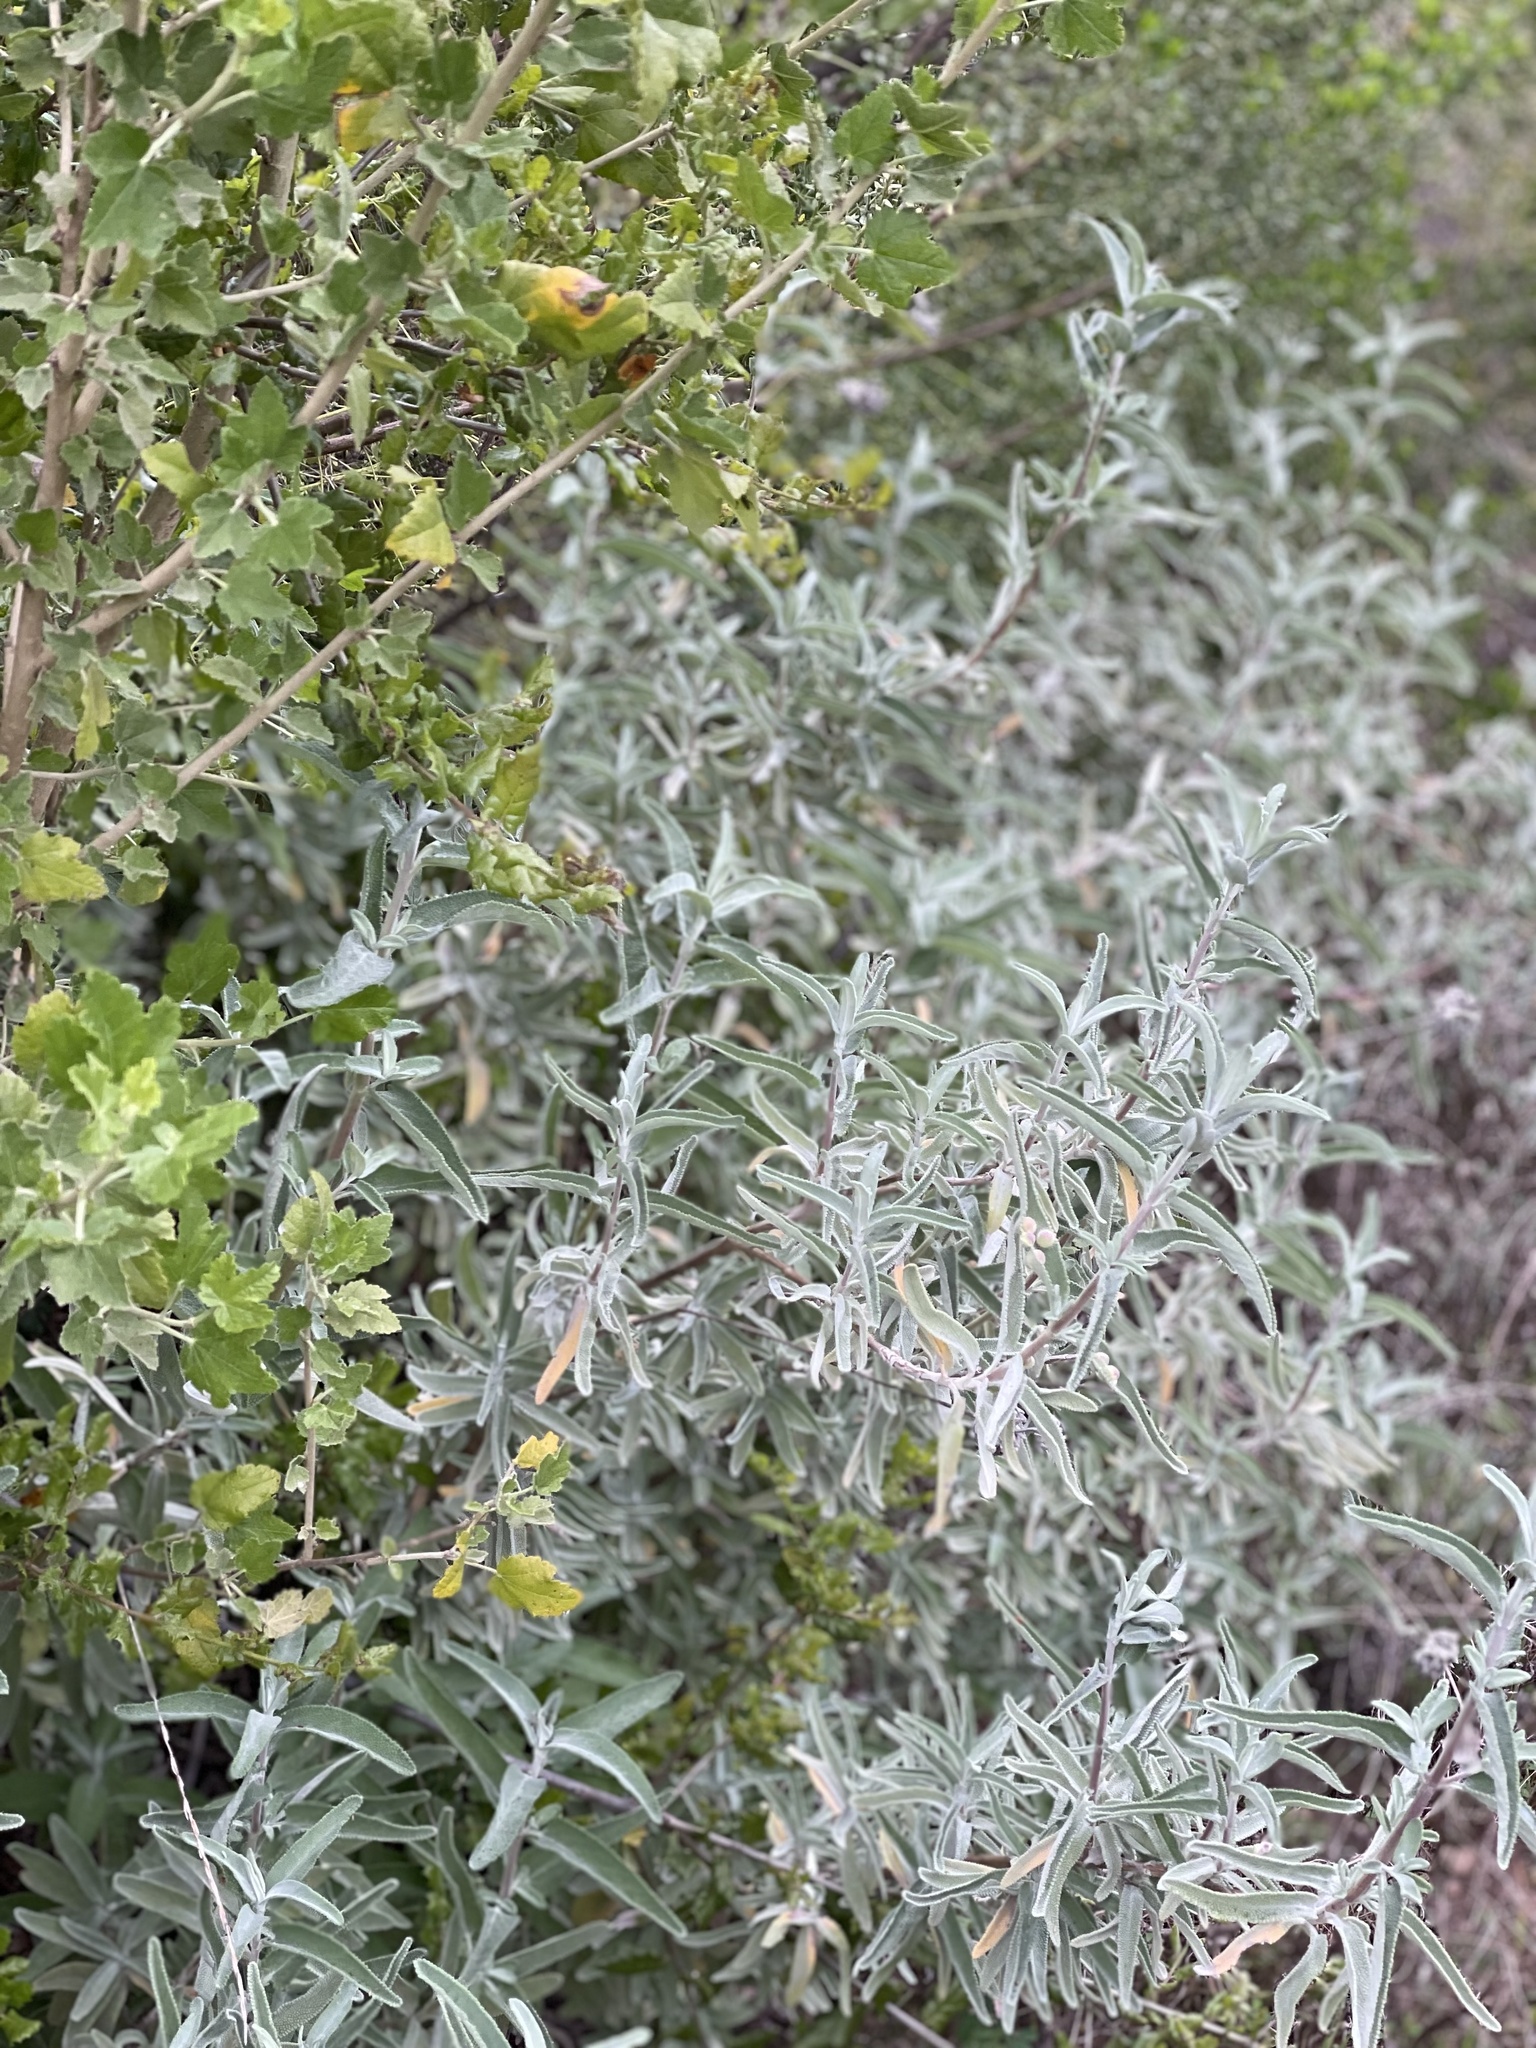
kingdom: Plantae
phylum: Tracheophyta
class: Magnoliopsida
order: Lamiales
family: Lamiaceae
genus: Salvia
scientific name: Salvia leucophylla
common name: Purple sage
